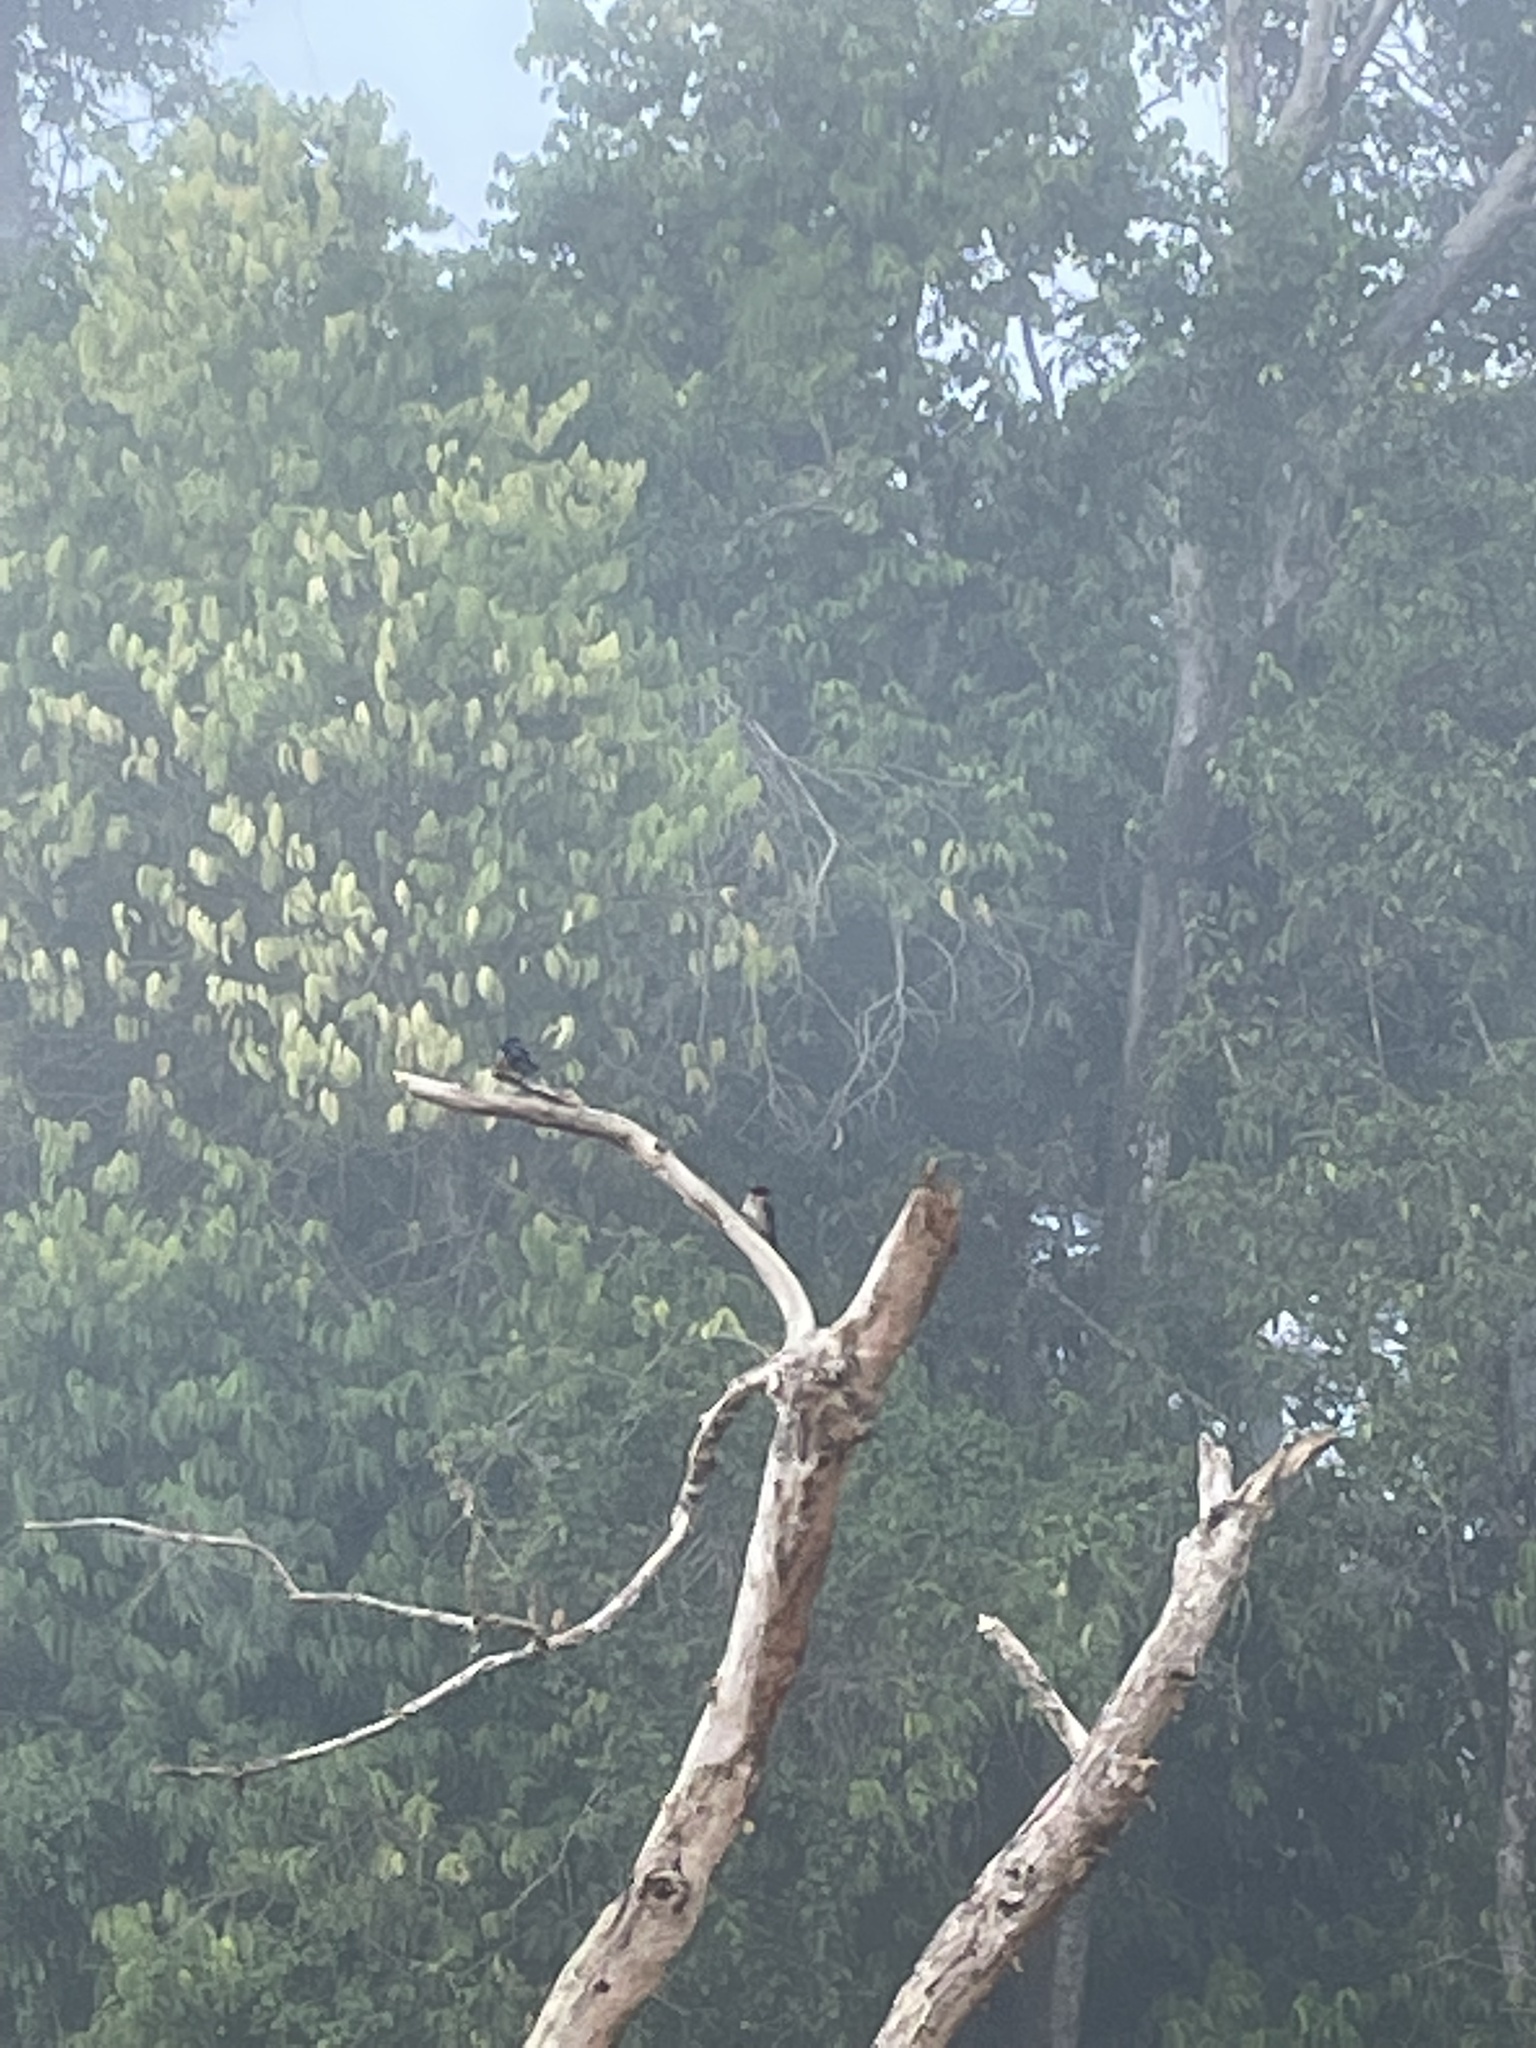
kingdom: Animalia
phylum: Chordata
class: Aves
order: Passeriformes
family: Hirundinidae
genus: Hirundo
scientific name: Hirundo tahitica
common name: Pacific swallow
